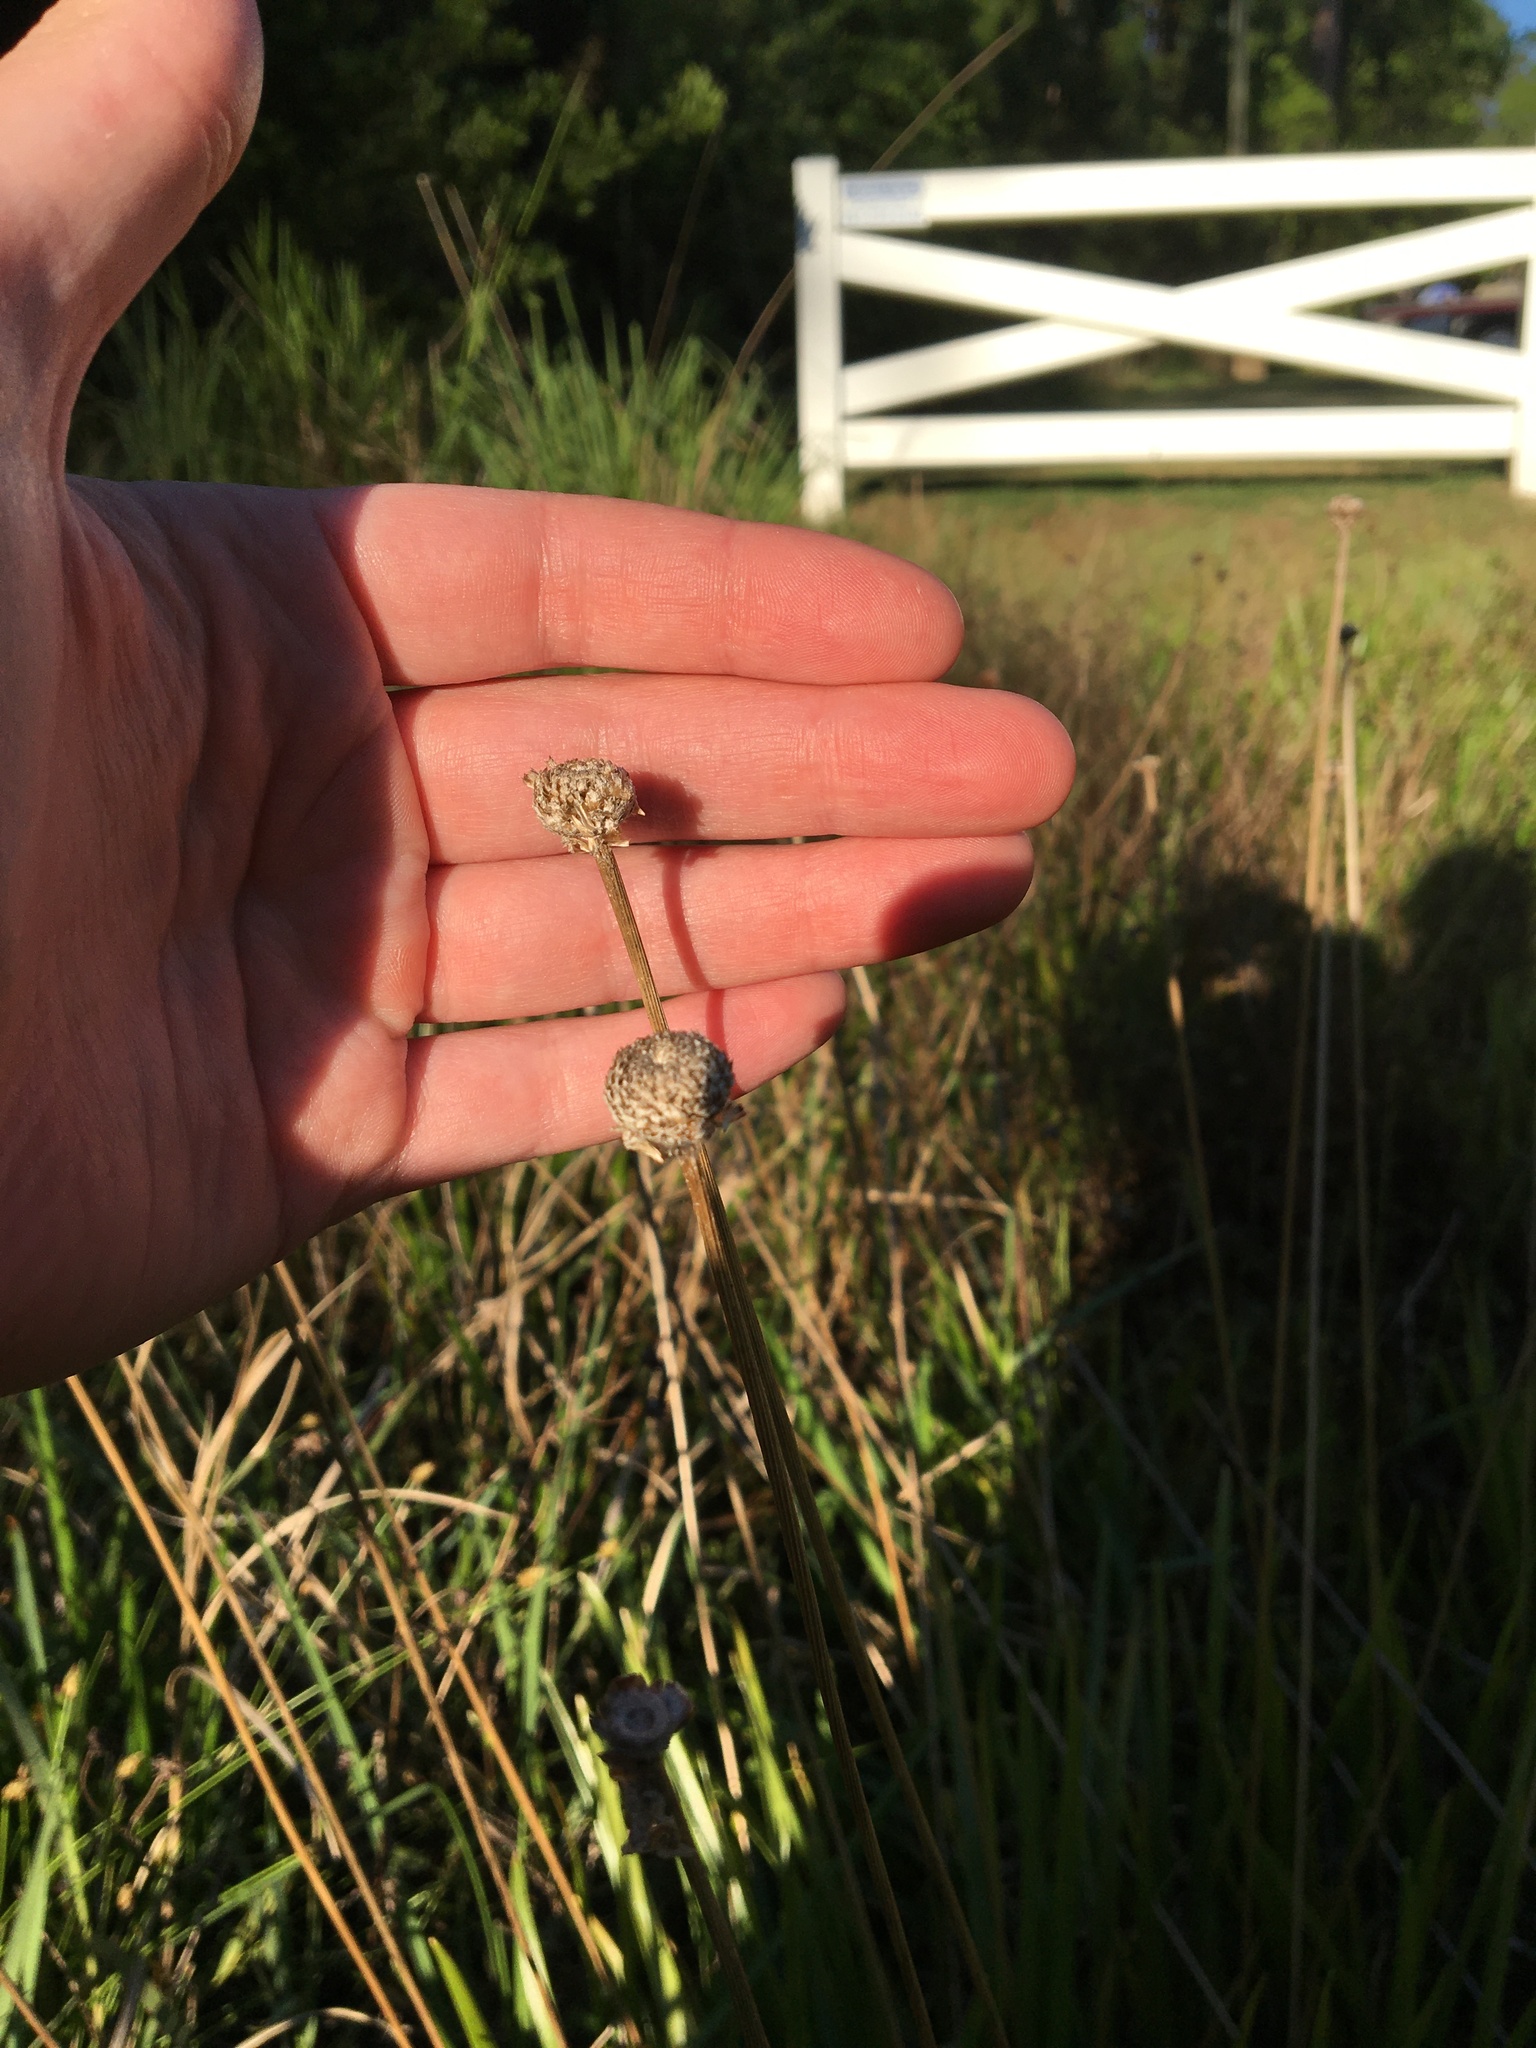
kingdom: Plantae
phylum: Tracheophyta
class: Liliopsida
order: Poales
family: Eriocaulaceae
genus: Eriocaulon
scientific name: Eriocaulon decangulare
